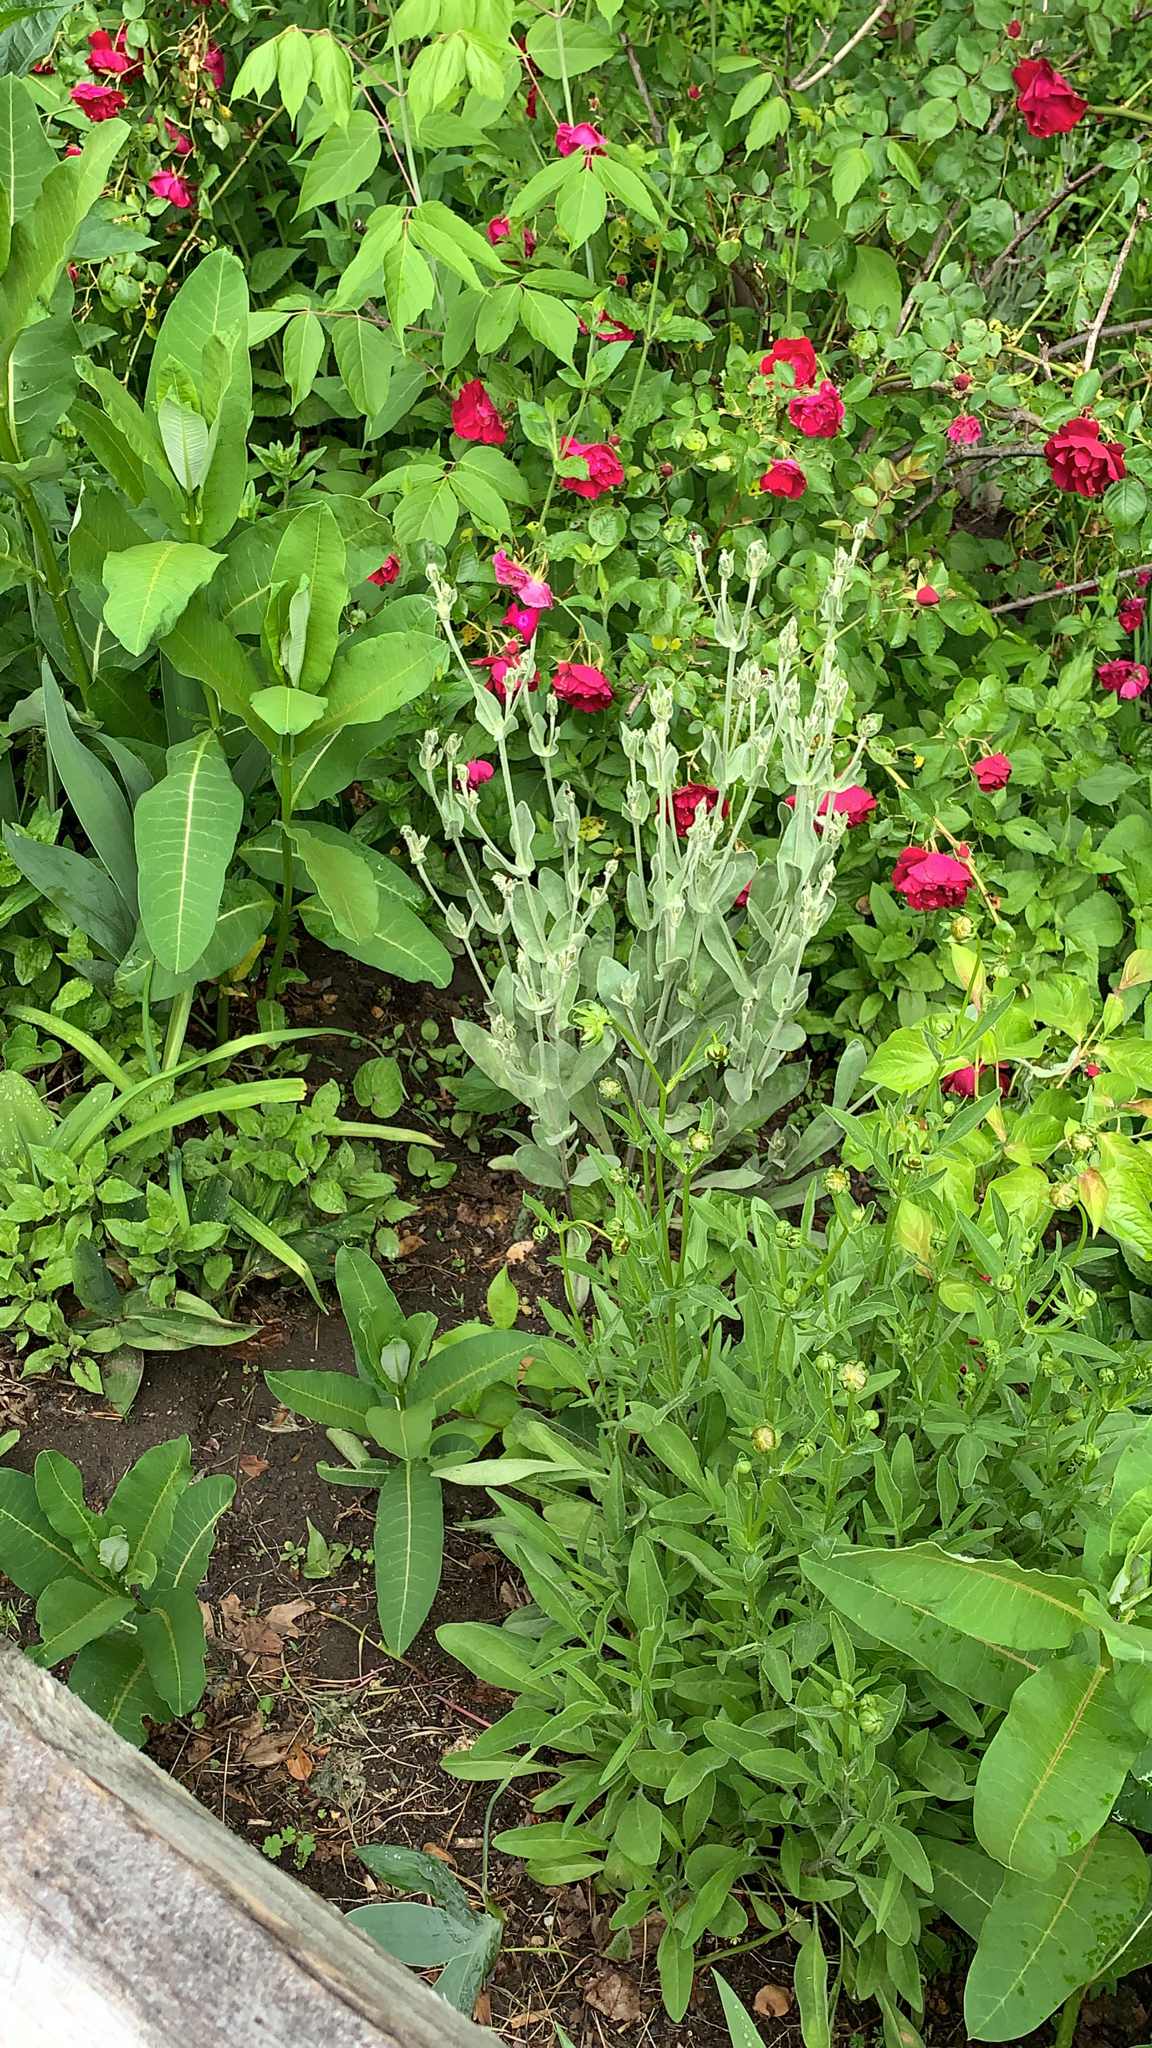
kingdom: Plantae
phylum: Tracheophyta
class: Magnoliopsida
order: Caryophyllales
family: Caryophyllaceae
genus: Silene
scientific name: Silene coronaria
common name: Rose campion
